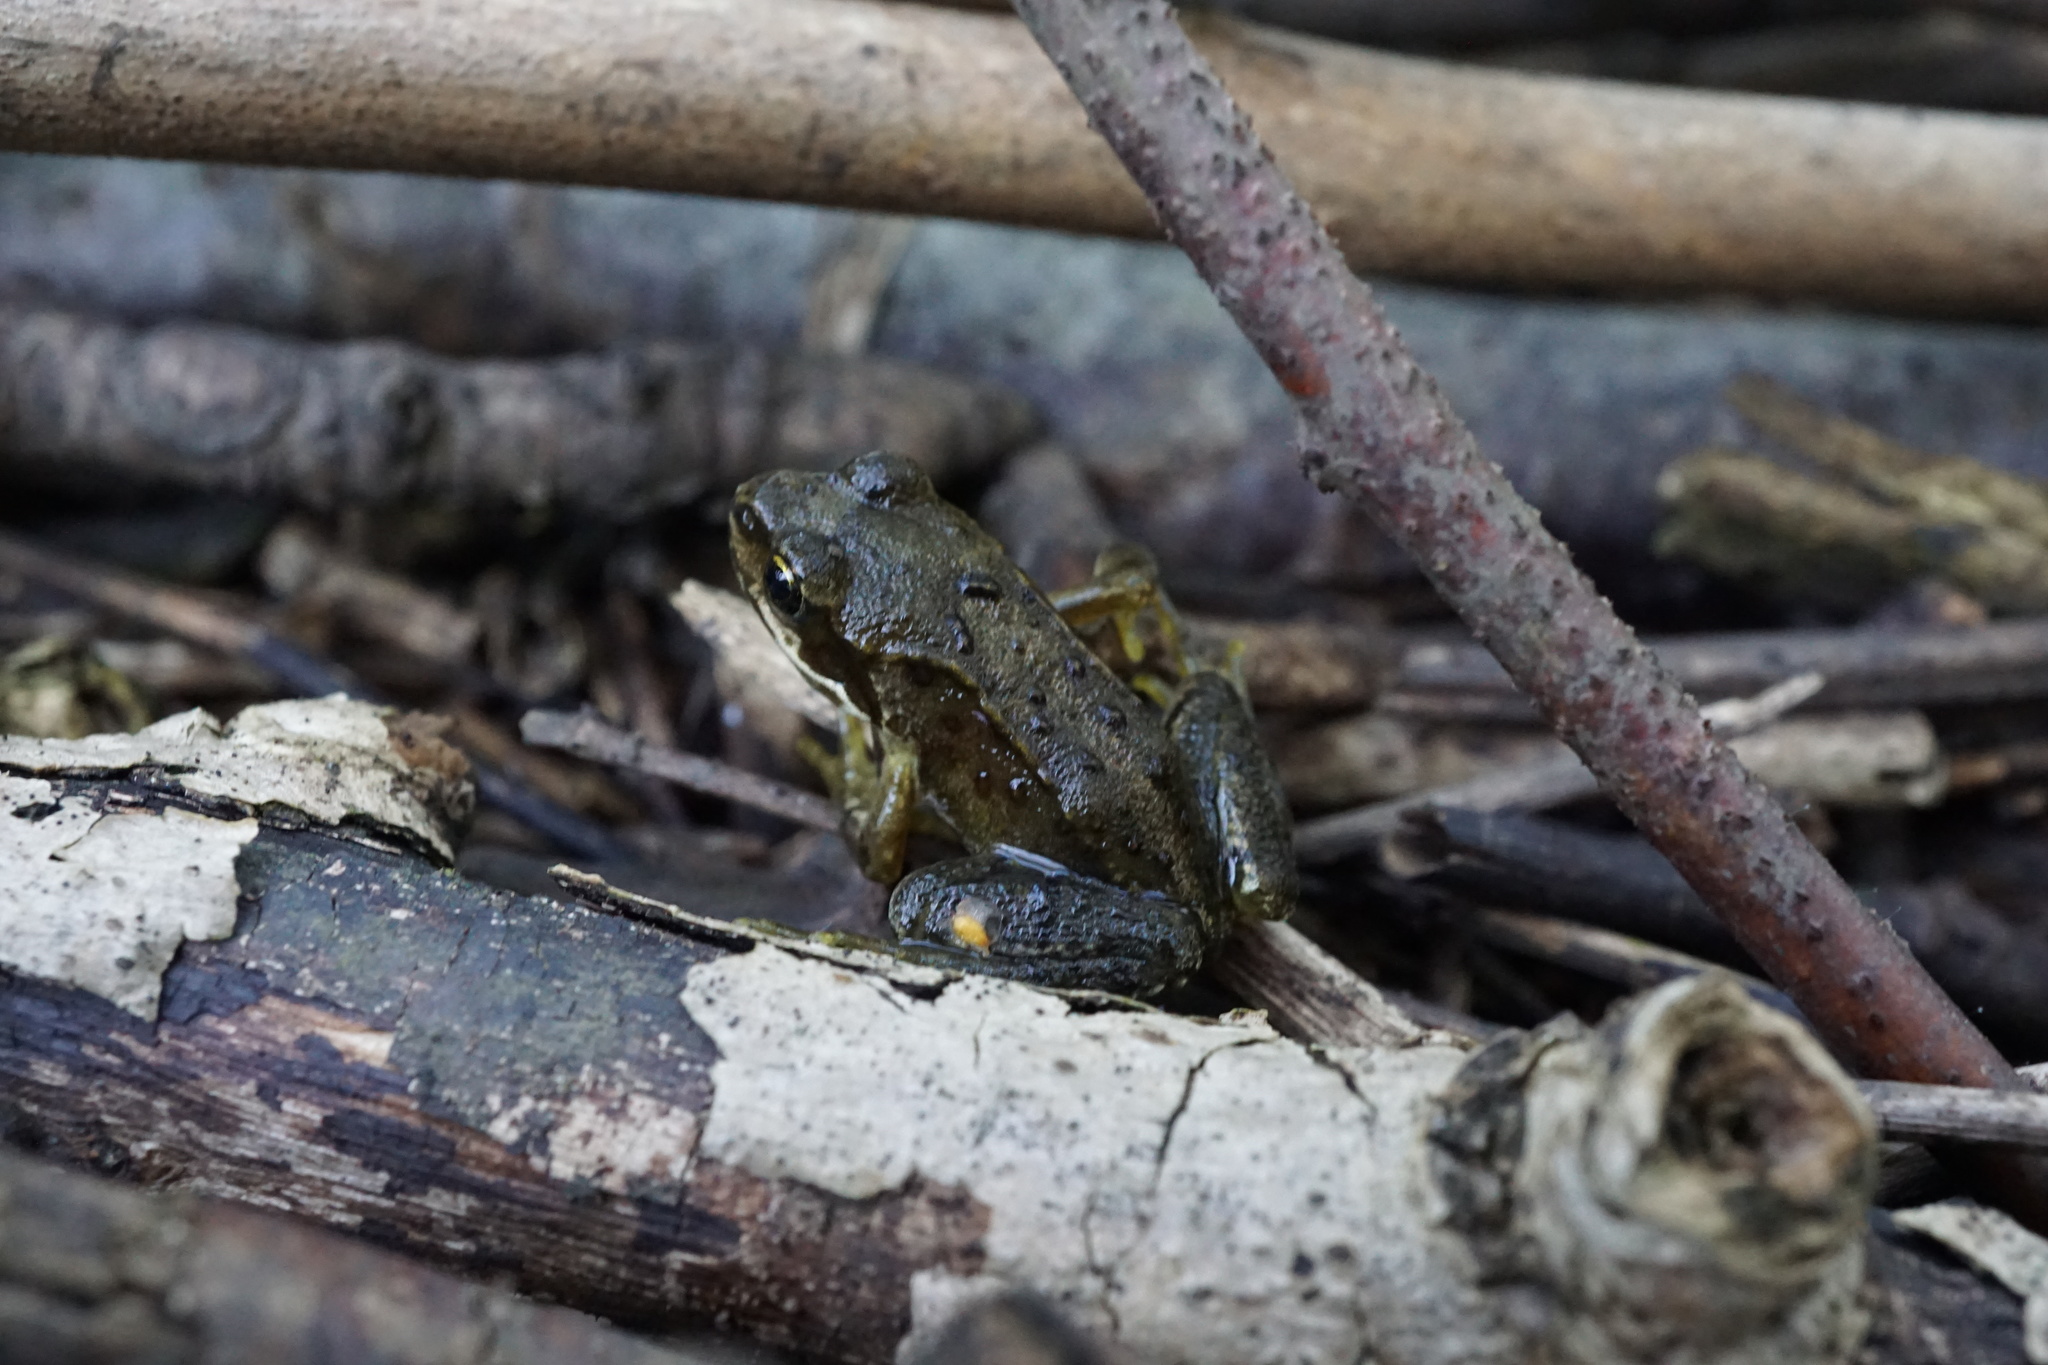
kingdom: Animalia
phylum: Chordata
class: Amphibia
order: Anura
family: Ranidae
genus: Rana
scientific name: Rana temporaria
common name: Common frog
